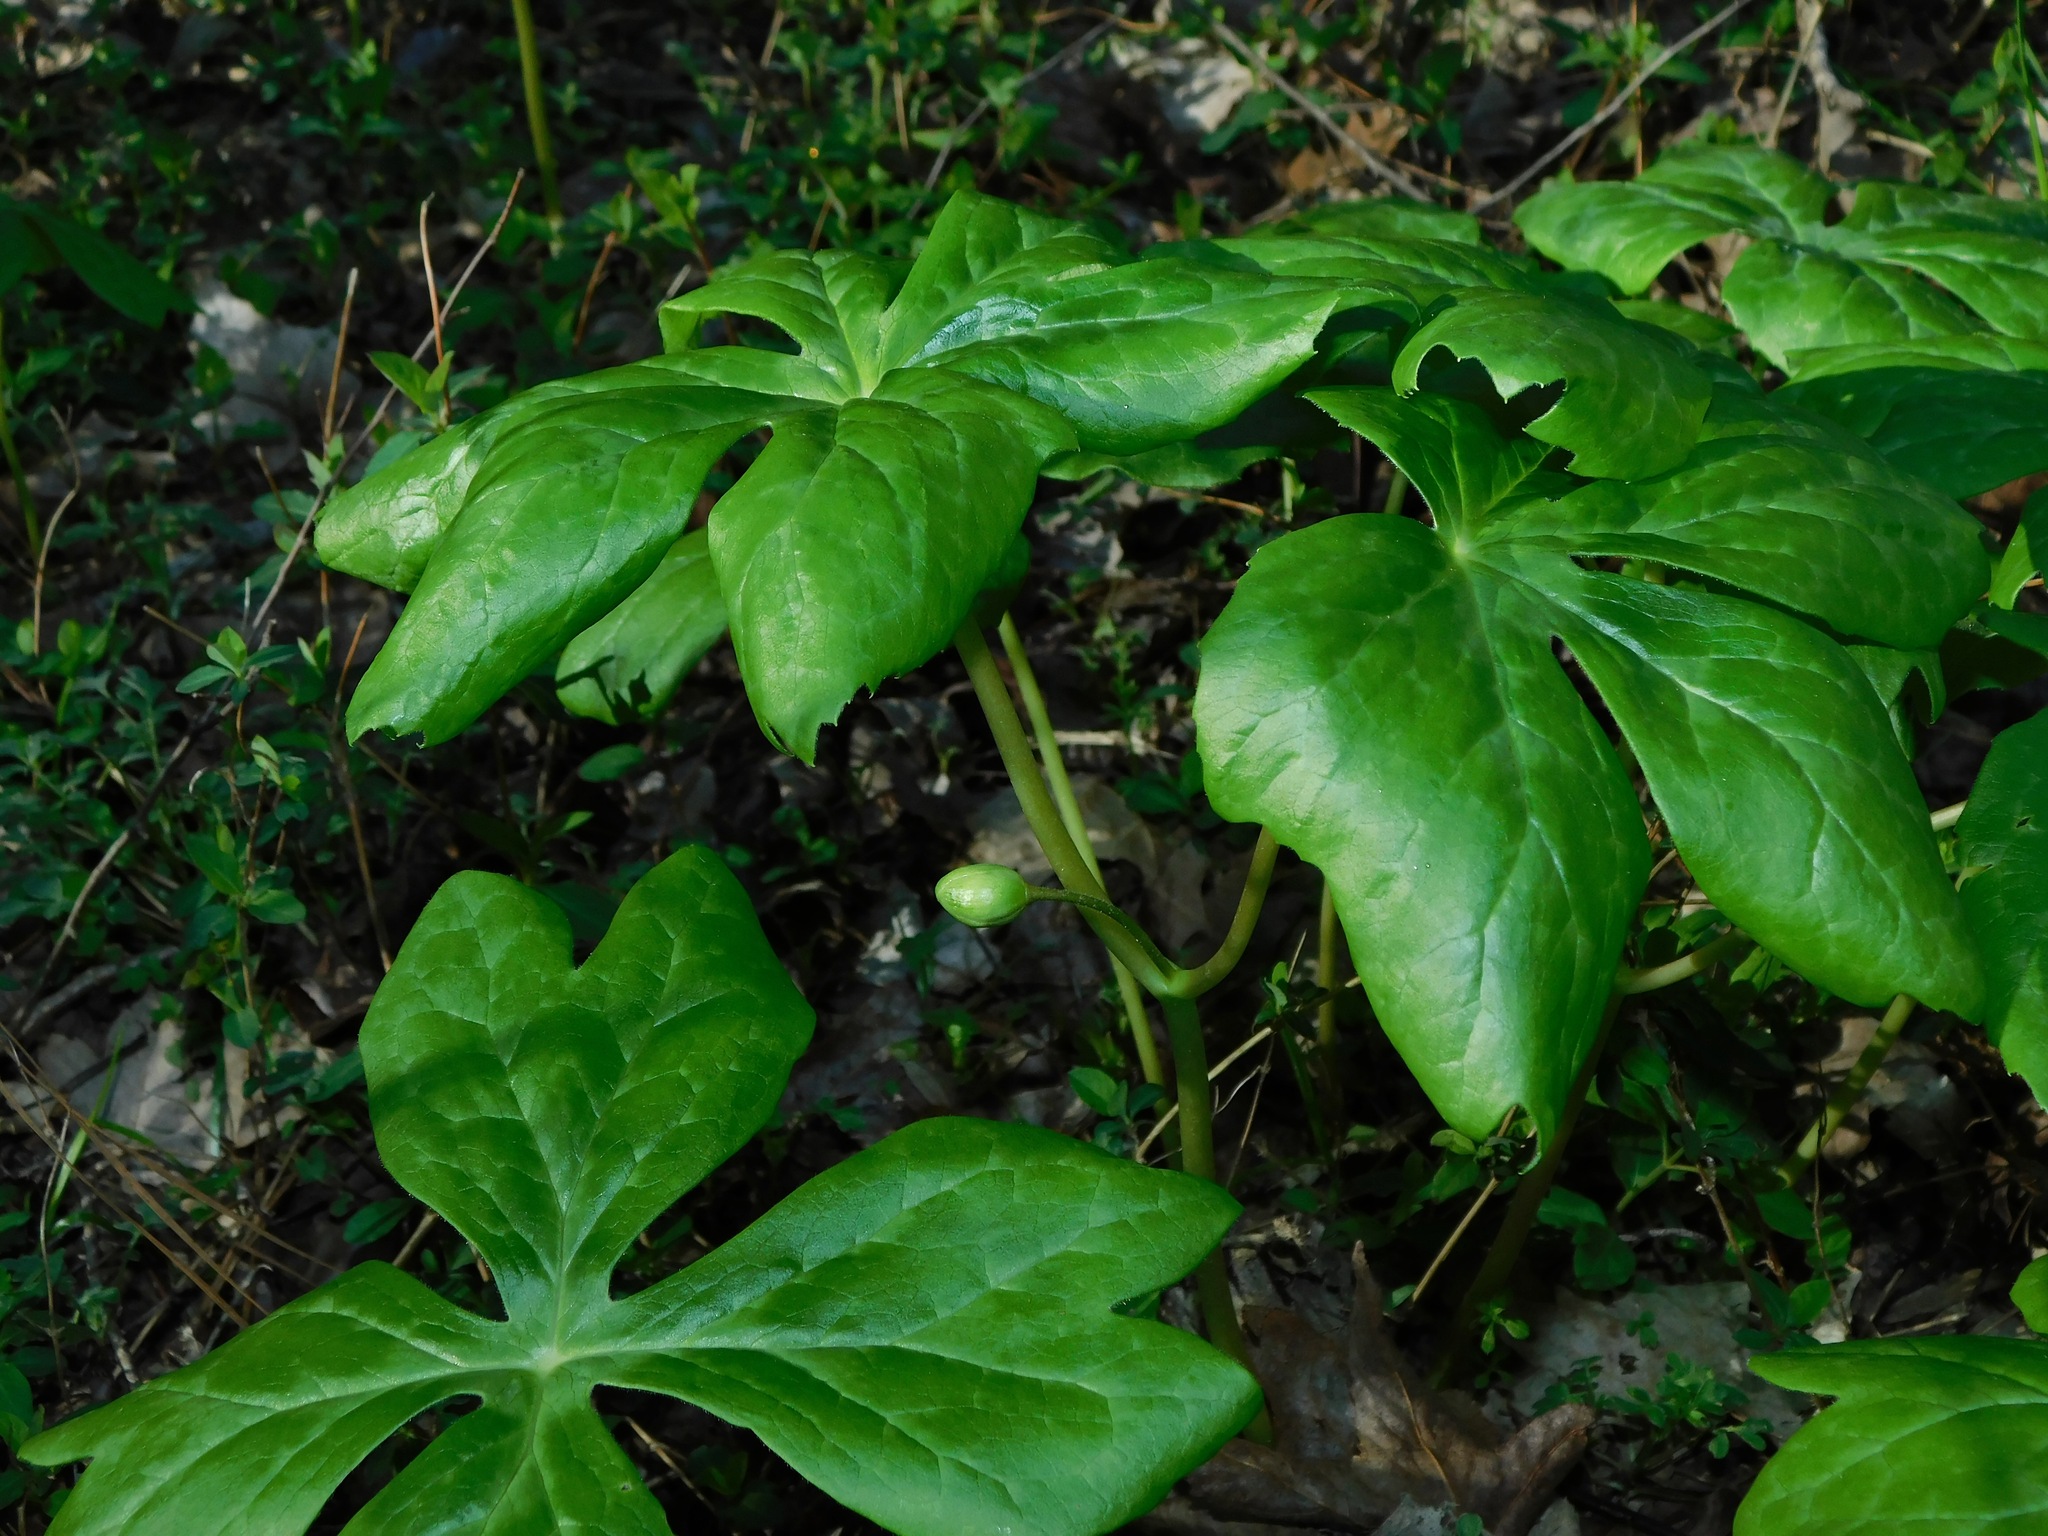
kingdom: Plantae
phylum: Tracheophyta
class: Magnoliopsida
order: Ranunculales
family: Berberidaceae
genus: Podophyllum
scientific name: Podophyllum peltatum
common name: Wild mandrake
